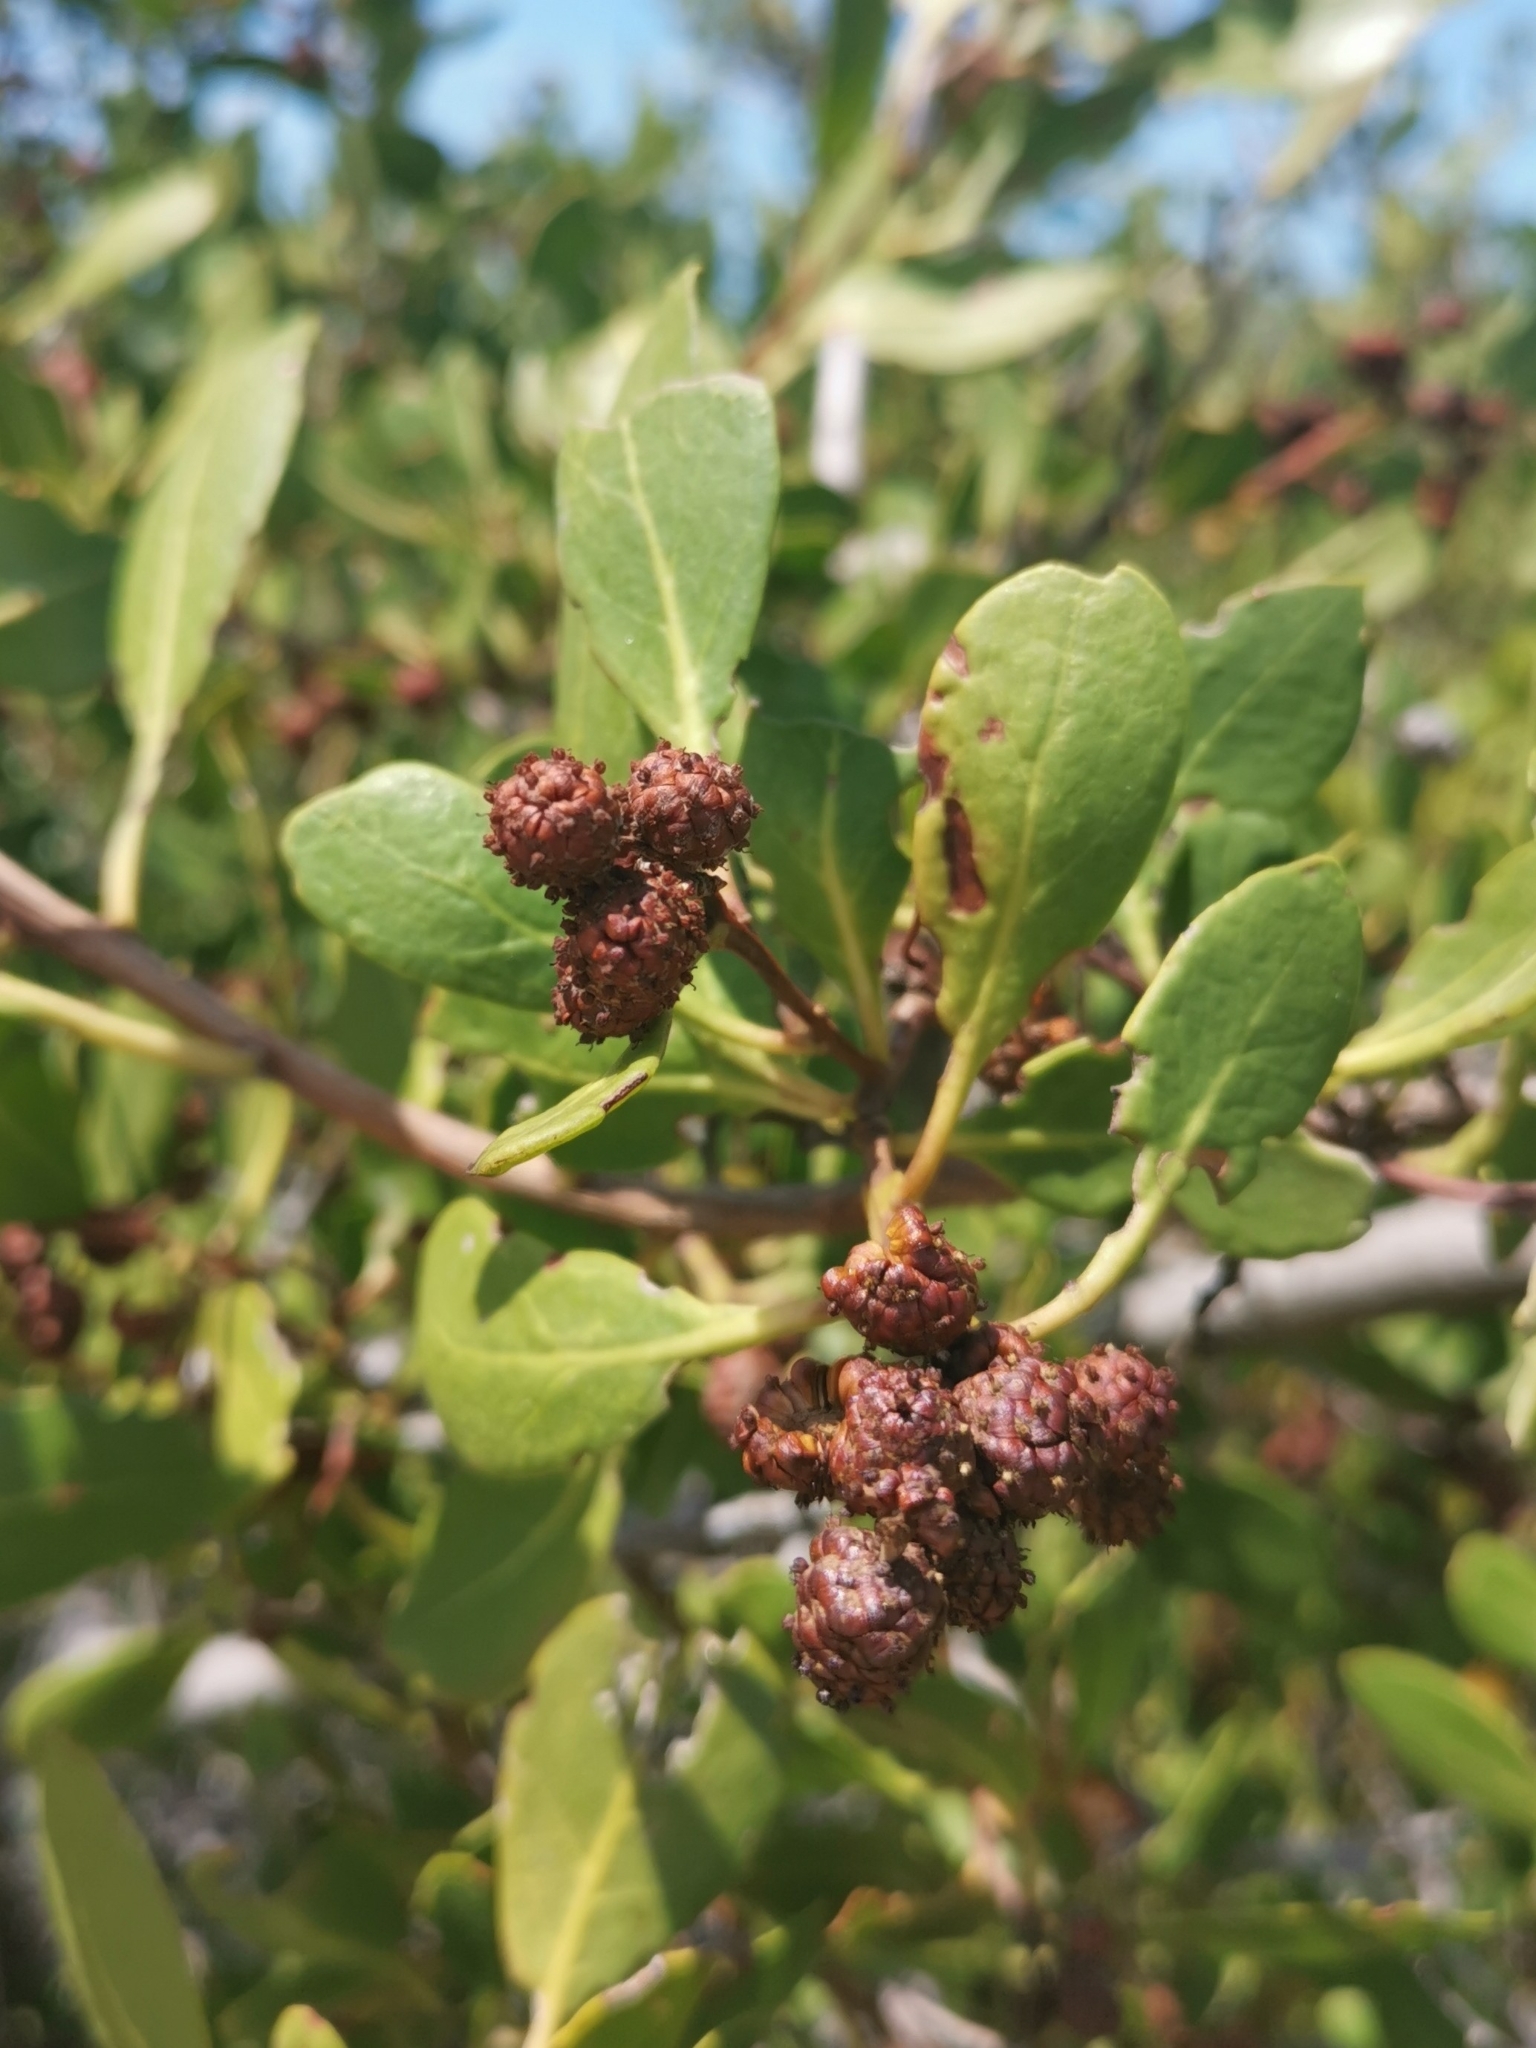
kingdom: Plantae
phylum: Tracheophyta
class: Magnoliopsida
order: Myrtales
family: Combretaceae
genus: Conocarpus
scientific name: Conocarpus erectus
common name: Button mangrove
